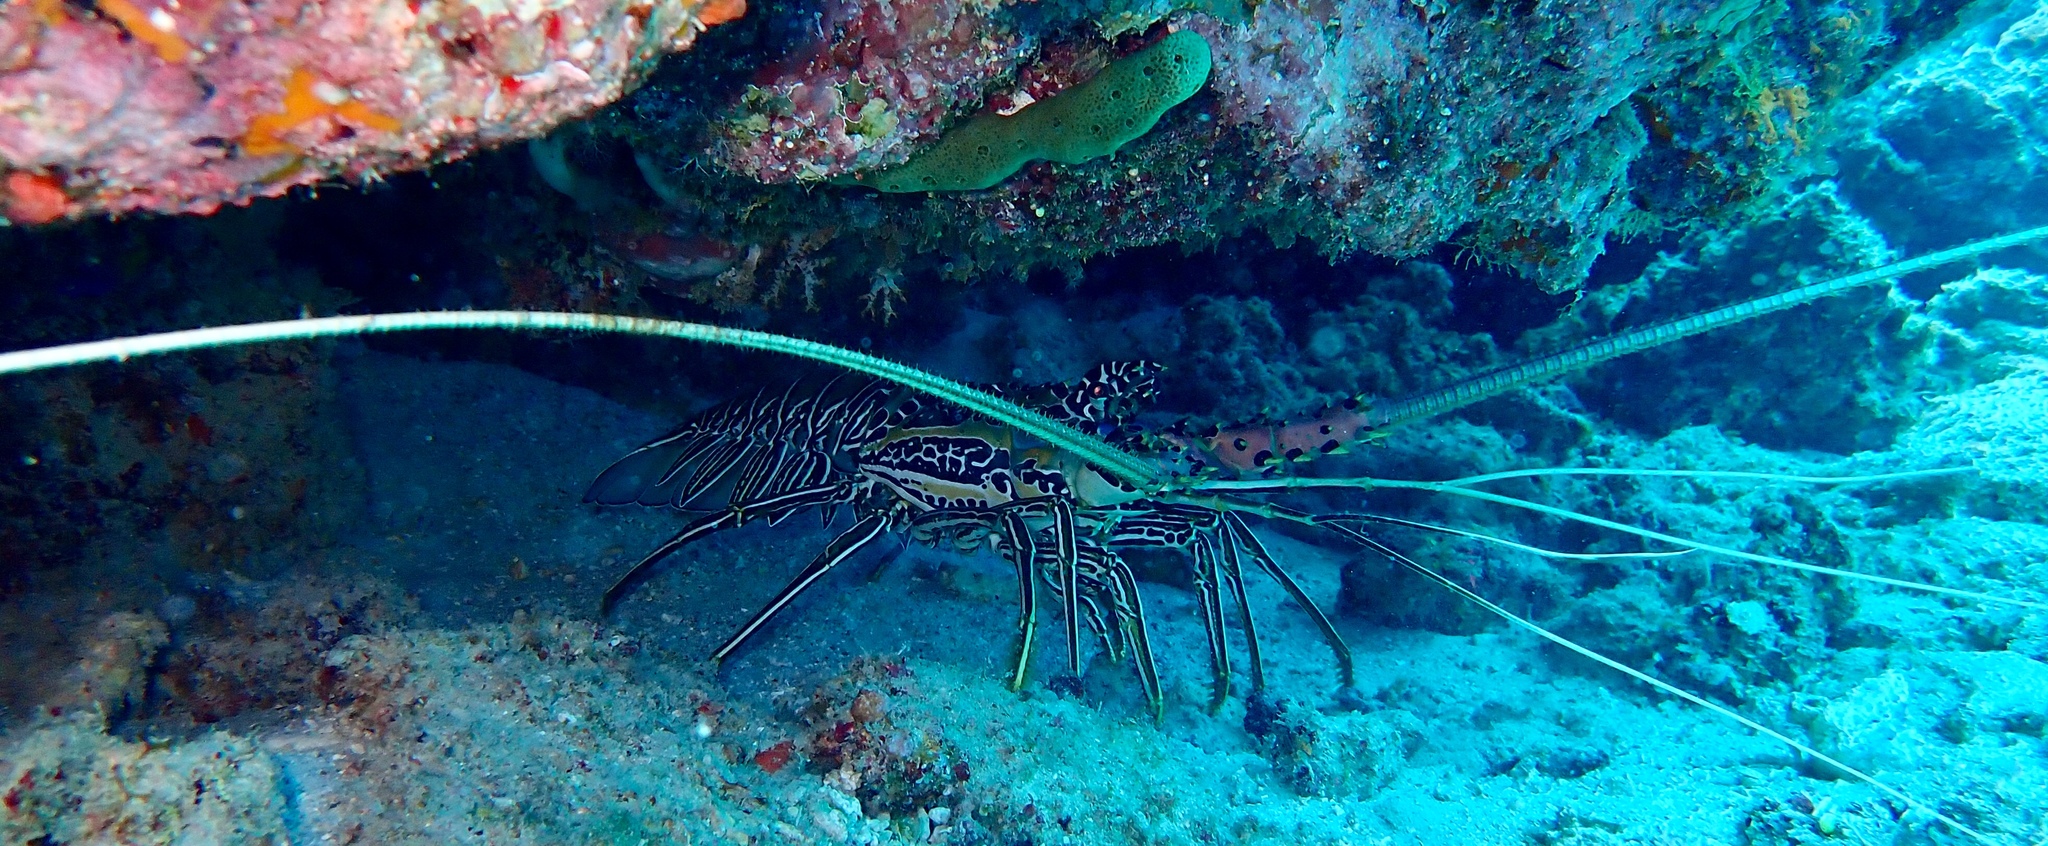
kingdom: Animalia
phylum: Arthropoda
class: Malacostraca
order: Decapoda
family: Palinuridae
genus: Panulirus
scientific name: Panulirus versicolor
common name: Painted spiny lobster
